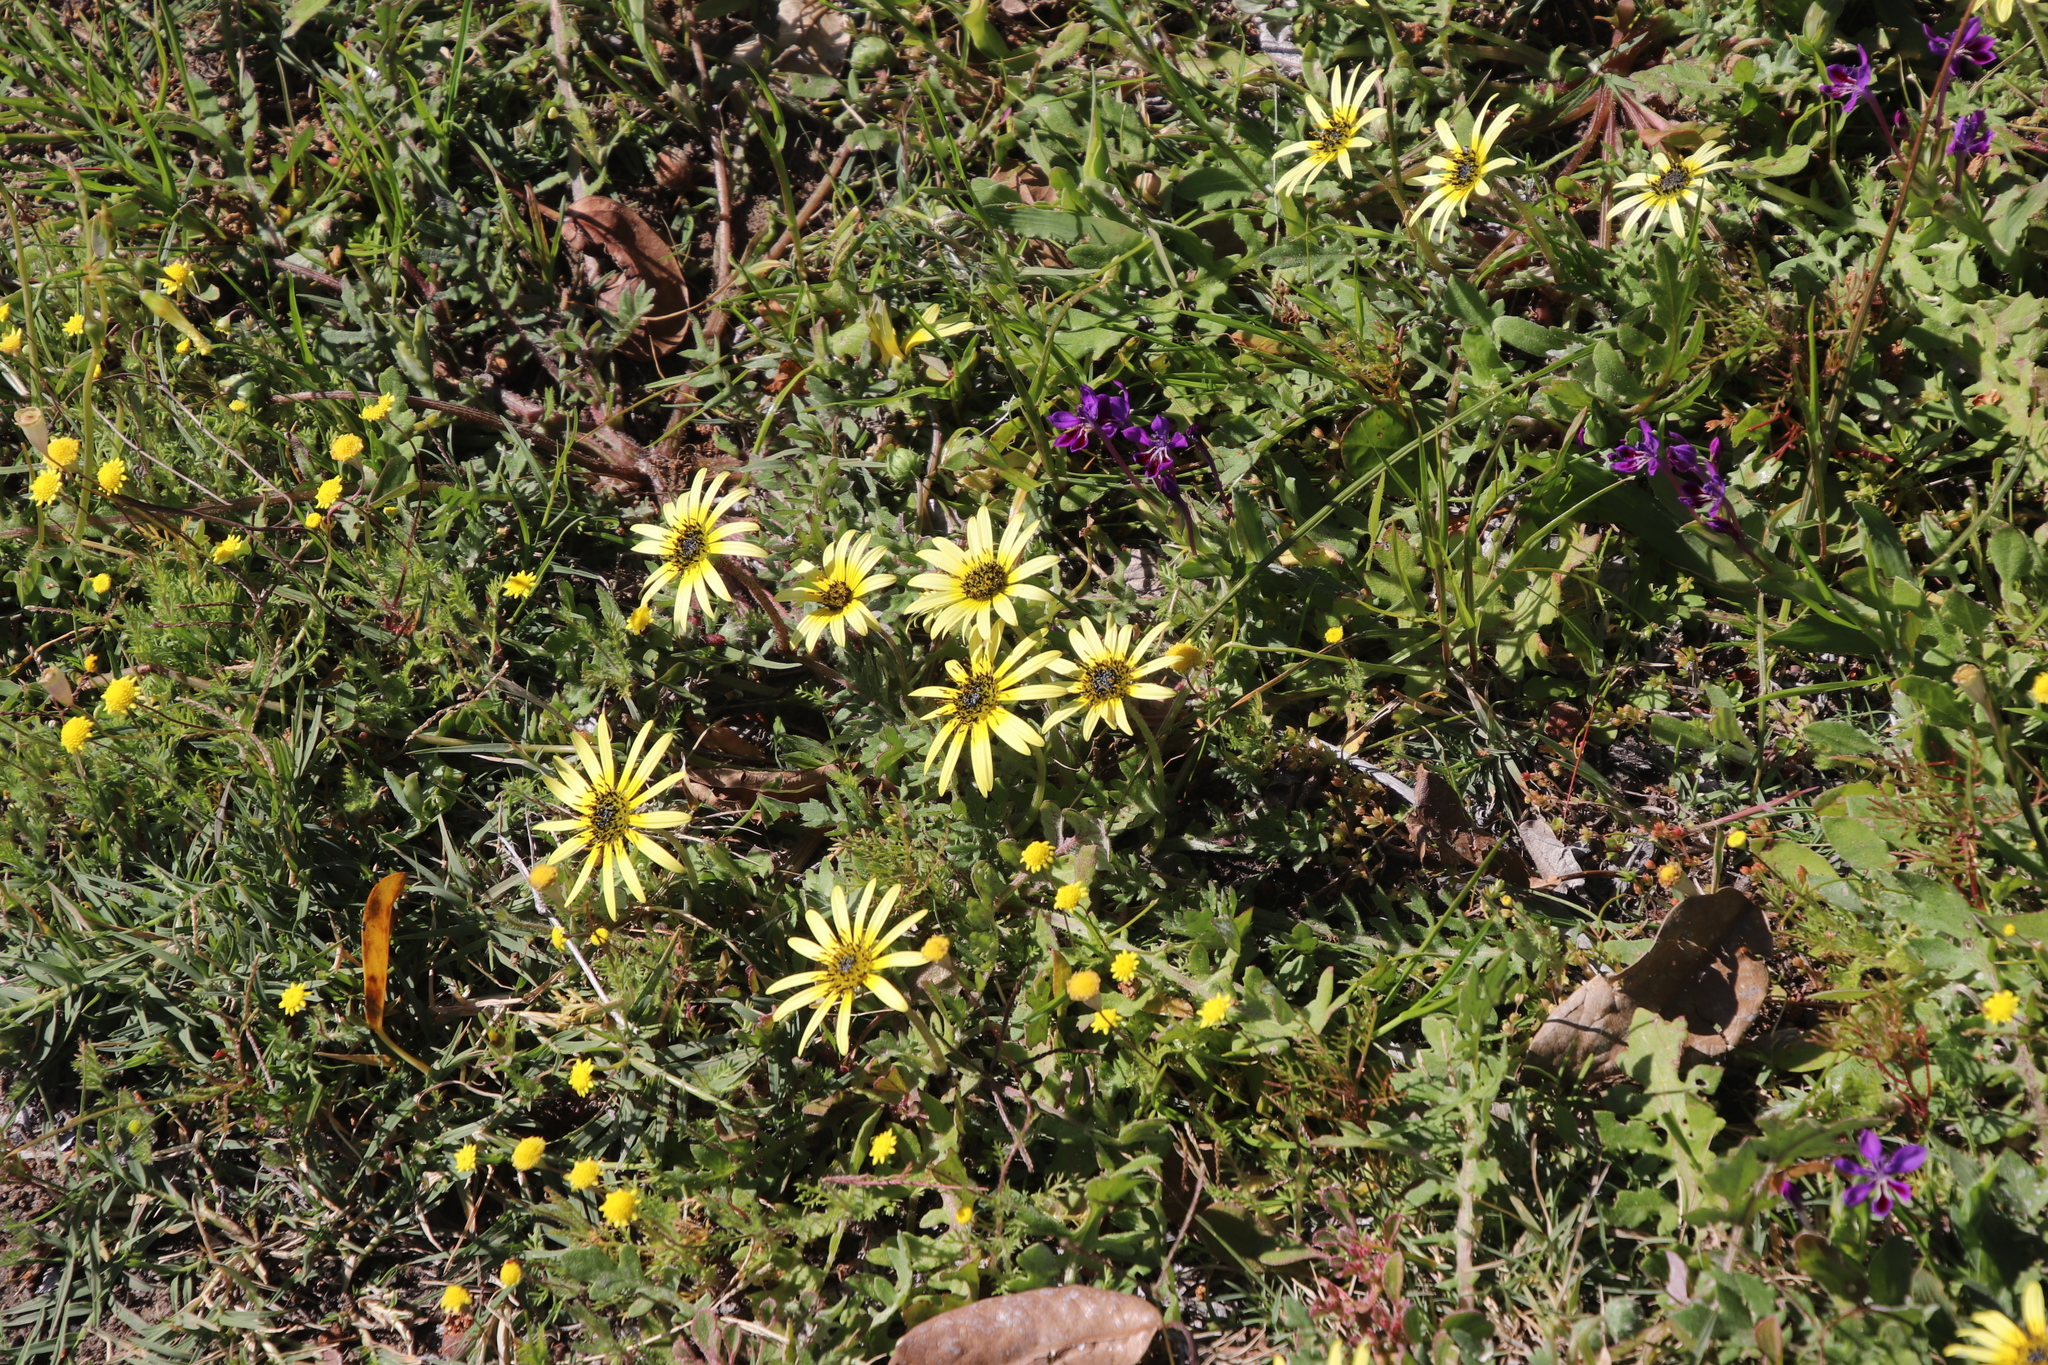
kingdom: Plantae
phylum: Tracheophyta
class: Magnoliopsida
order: Asterales
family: Asteraceae
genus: Arctotheca
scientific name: Arctotheca calendula
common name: Capeweed
